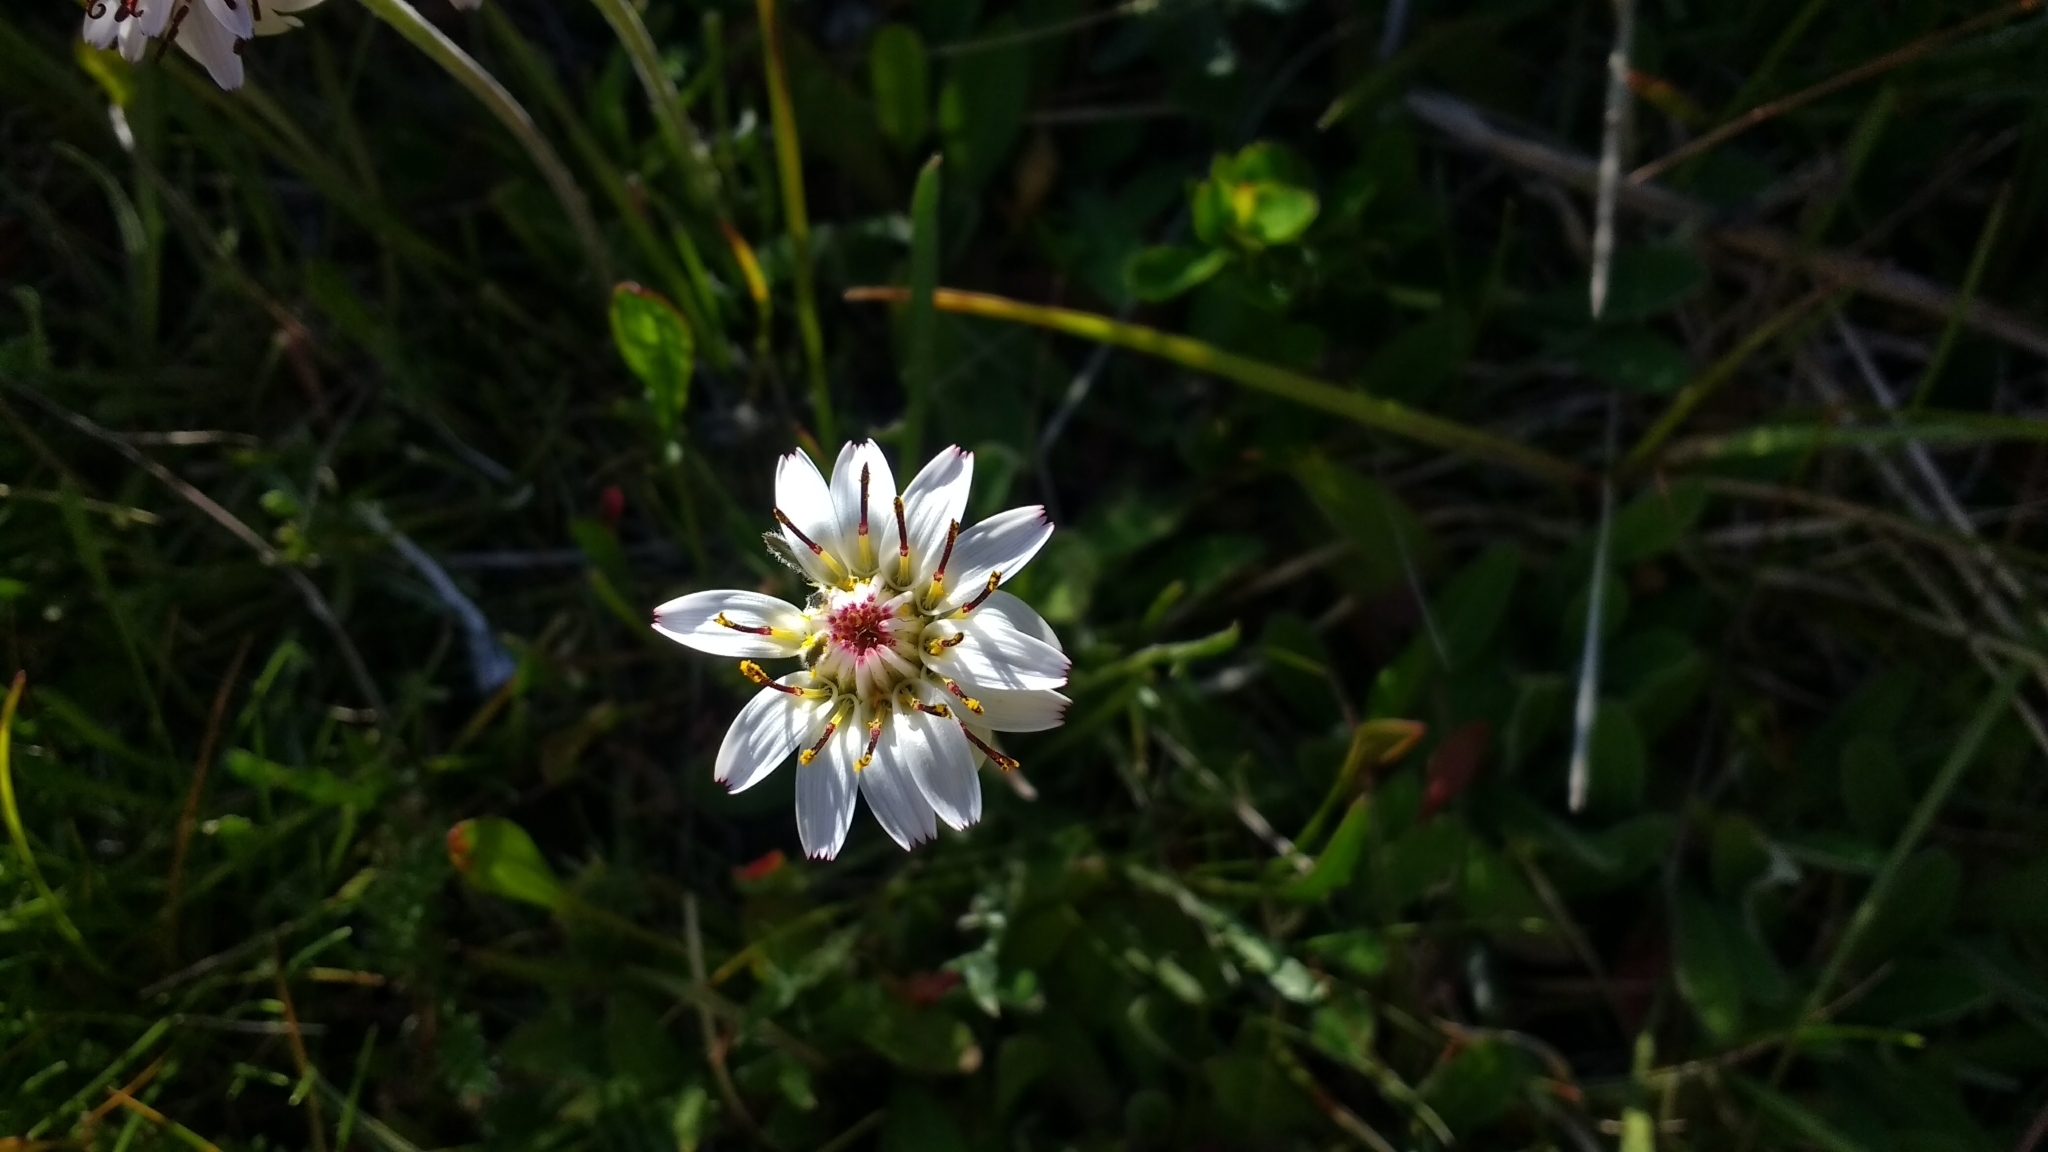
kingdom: Plantae
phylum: Tracheophyta
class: Magnoliopsida
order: Asterales
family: Asteraceae
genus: Hypochaeris
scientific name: Hypochaeris incana
